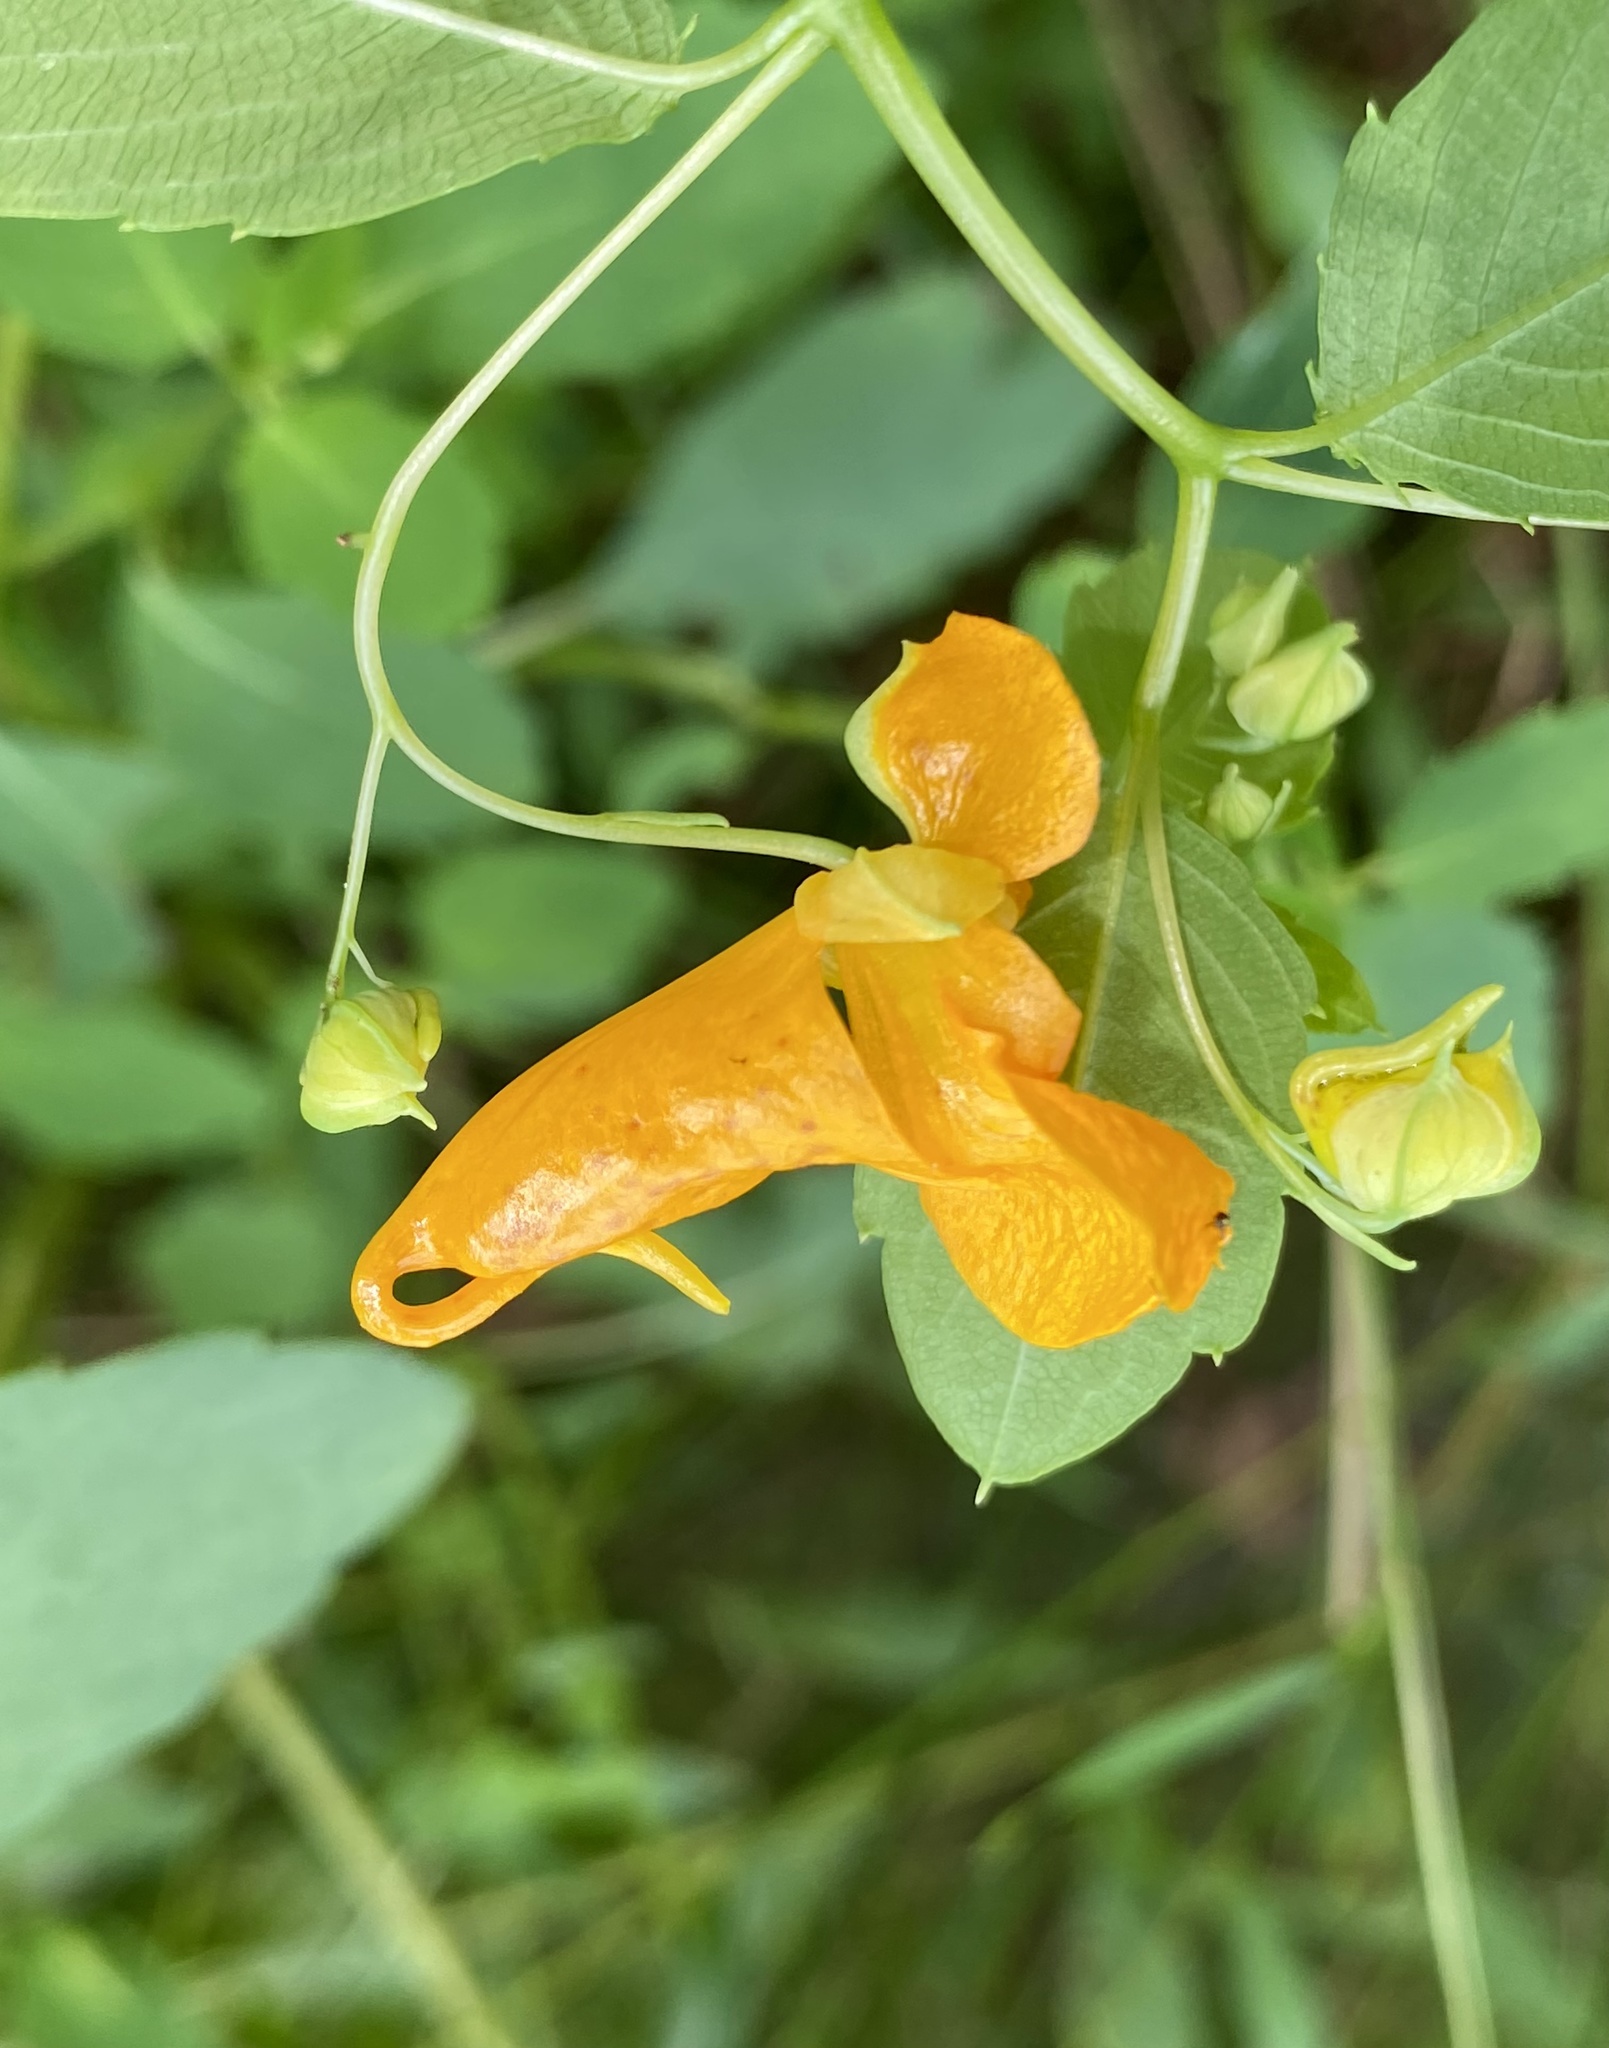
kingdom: Plantae
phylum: Tracheophyta
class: Magnoliopsida
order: Ericales
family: Balsaminaceae
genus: Impatiens
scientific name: Impatiens capensis
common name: Orange balsam
